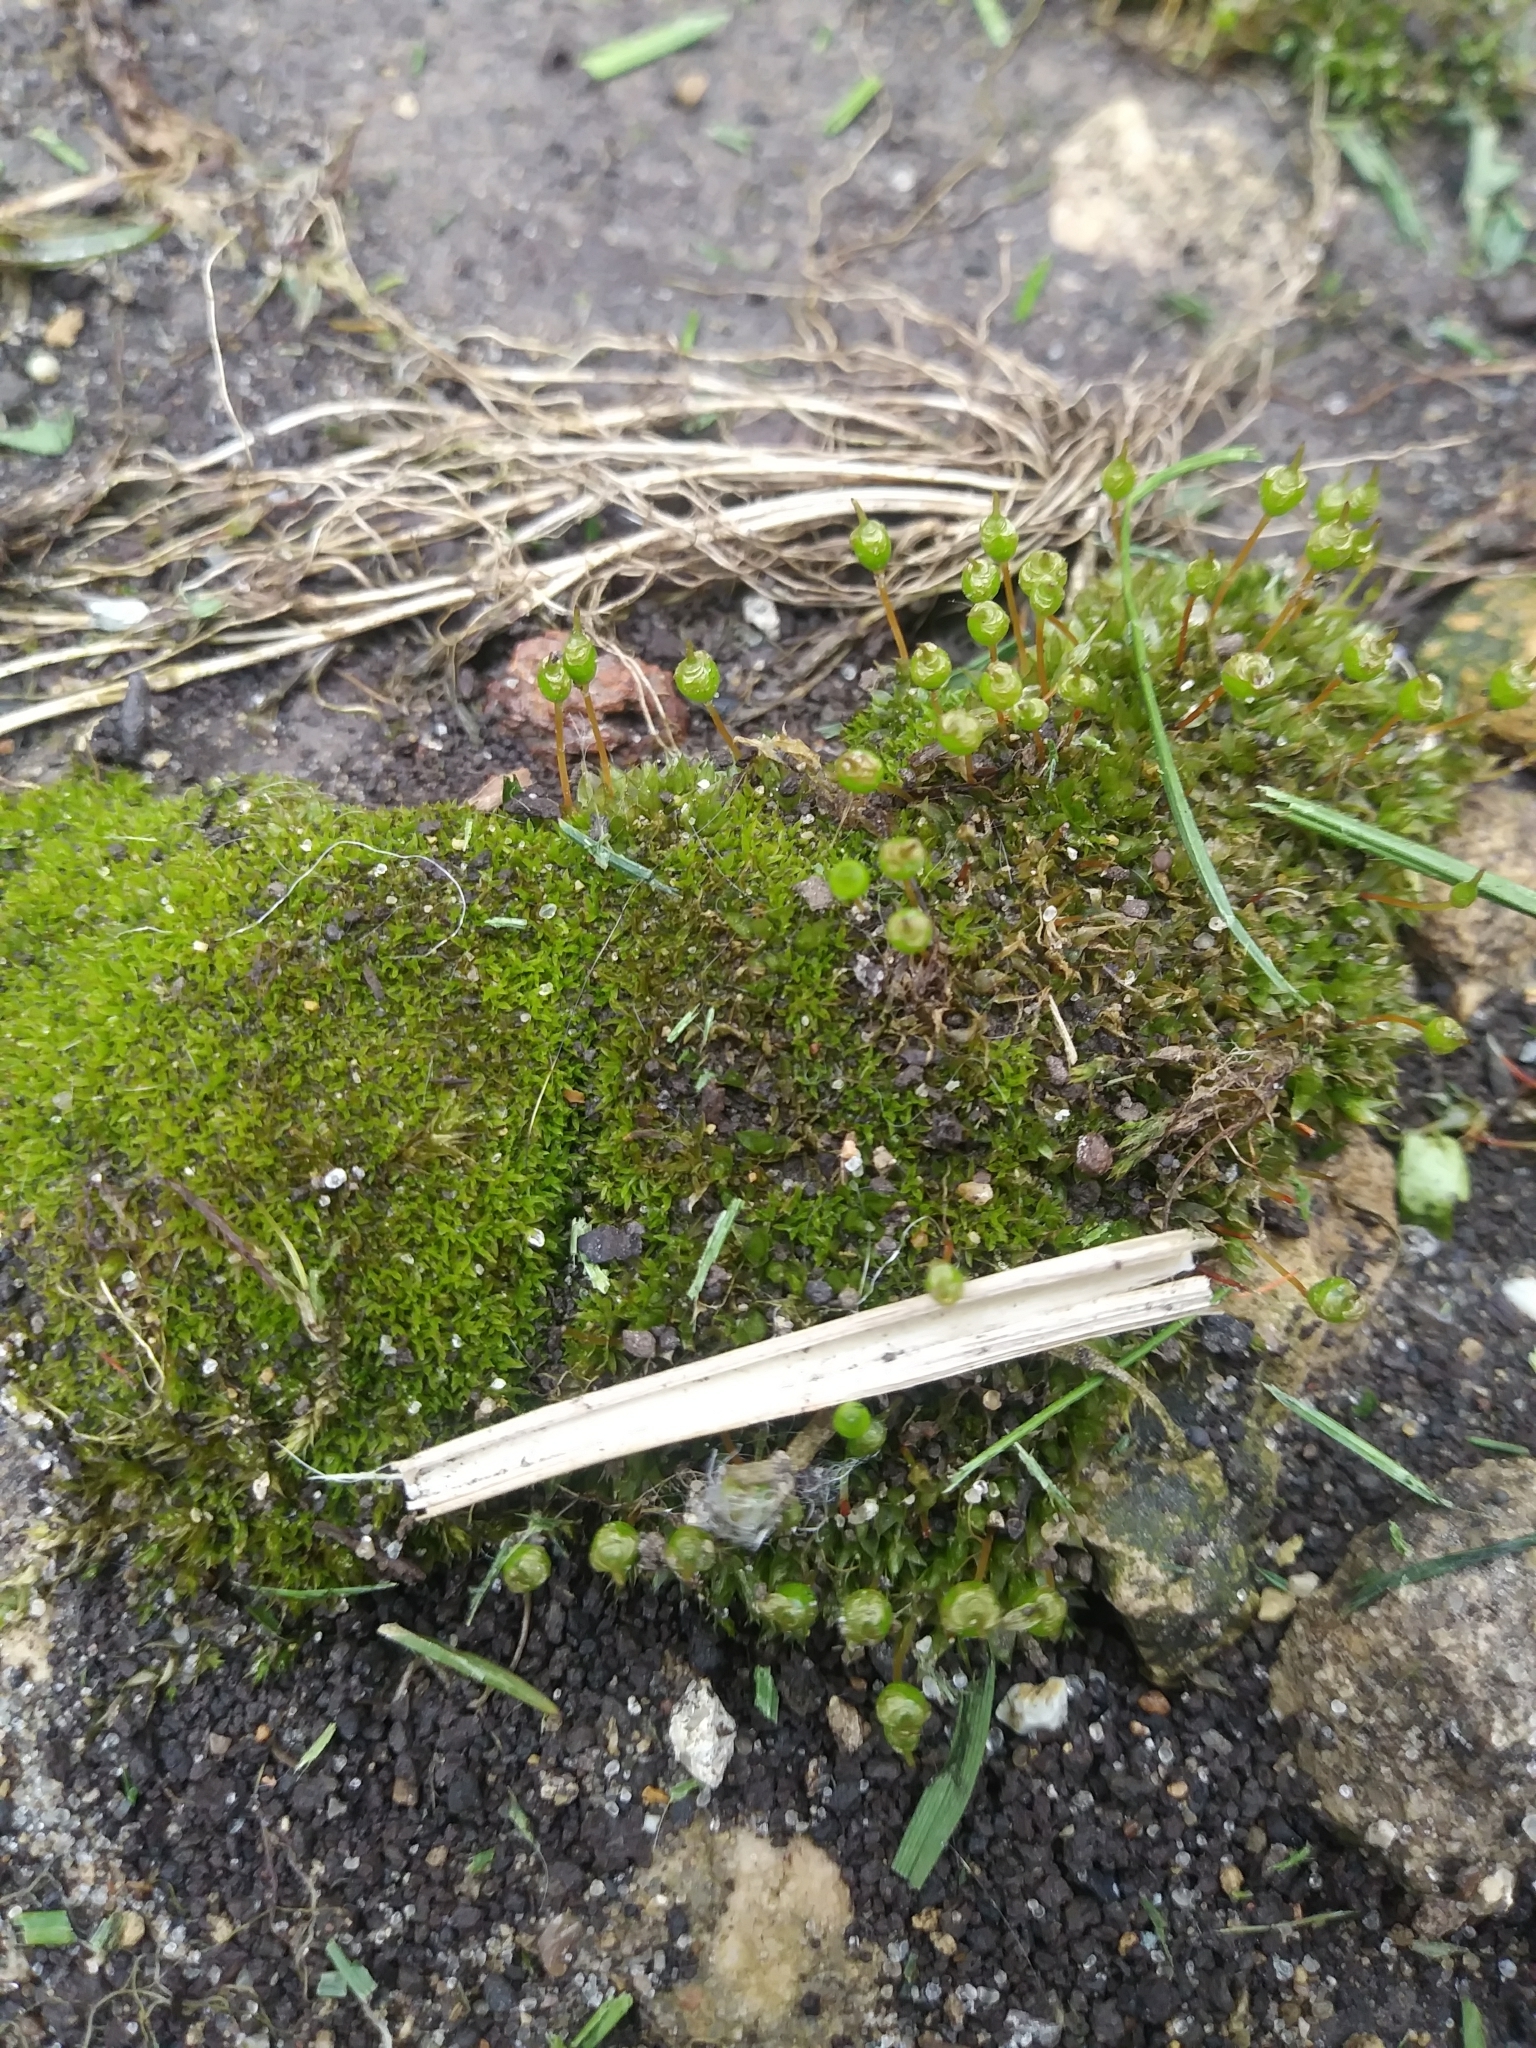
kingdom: Plantae
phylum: Bryophyta
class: Bryopsida
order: Funariales
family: Funariaceae
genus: Physcomitrium
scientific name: Physcomitrium pyriforme
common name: Common bladder-moss
